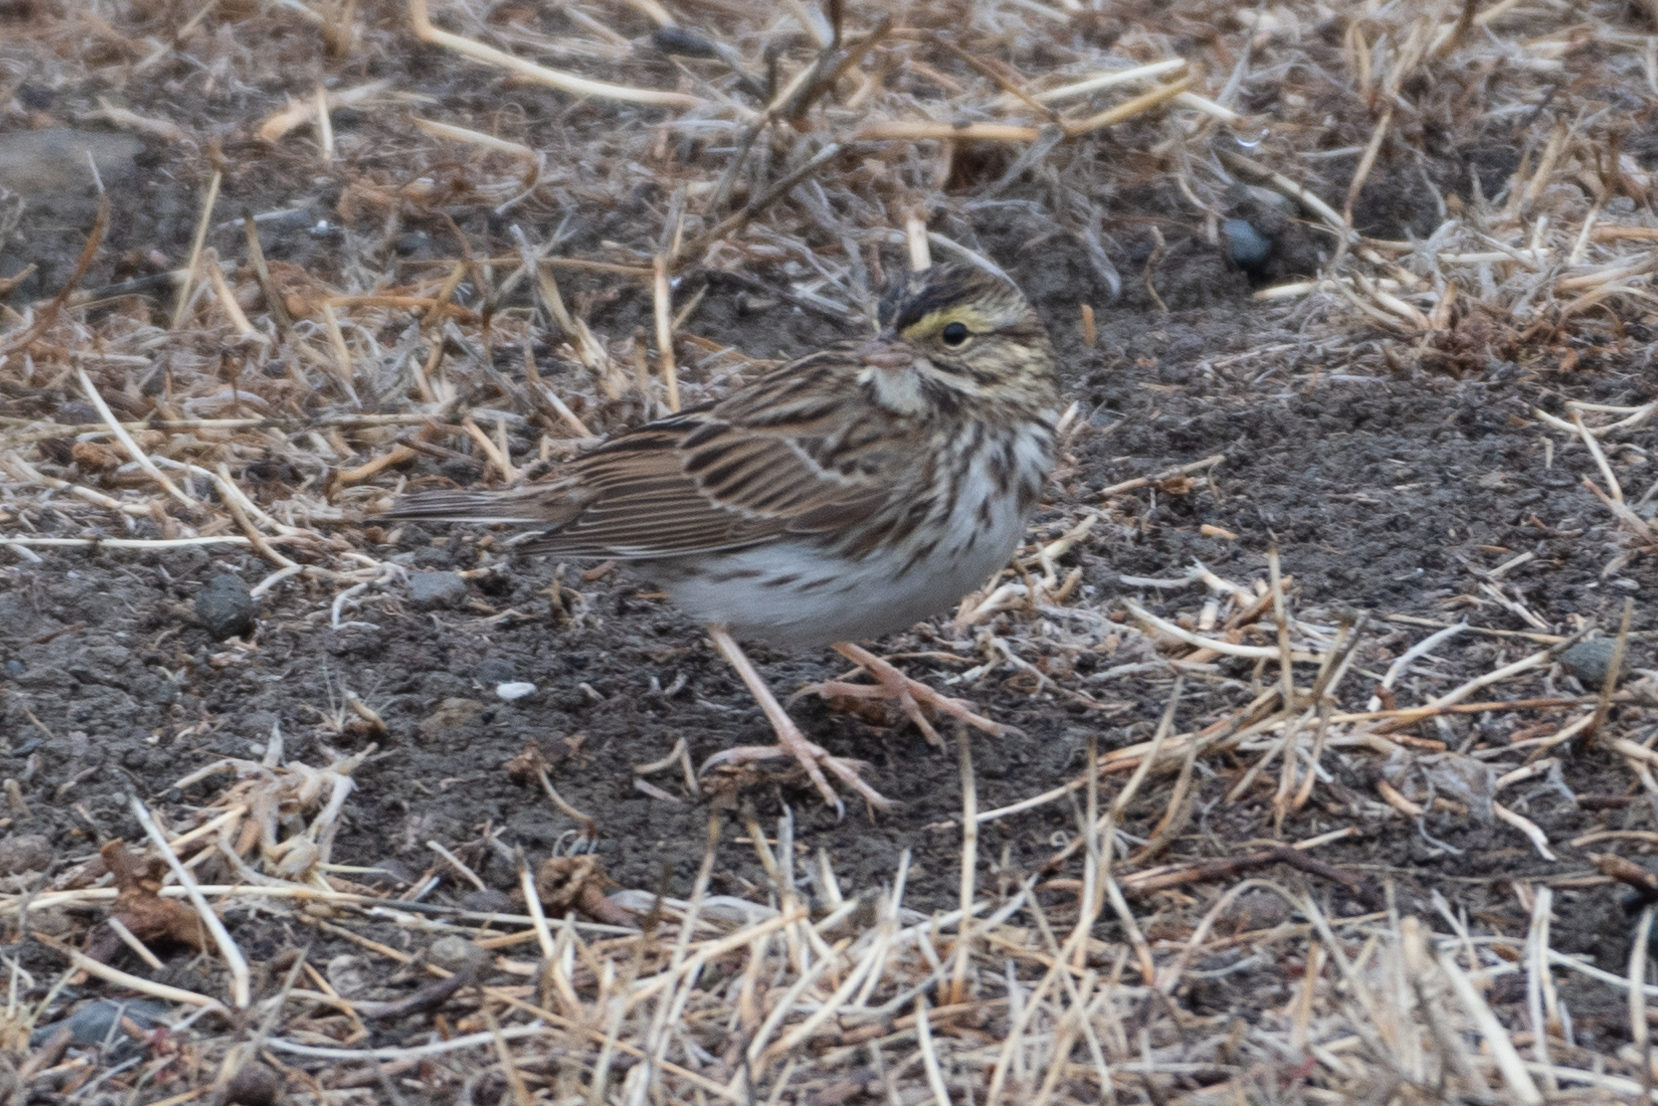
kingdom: Animalia
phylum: Chordata
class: Aves
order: Passeriformes
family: Passerellidae
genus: Passerculus
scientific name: Passerculus sandwichensis
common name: Savannah sparrow
